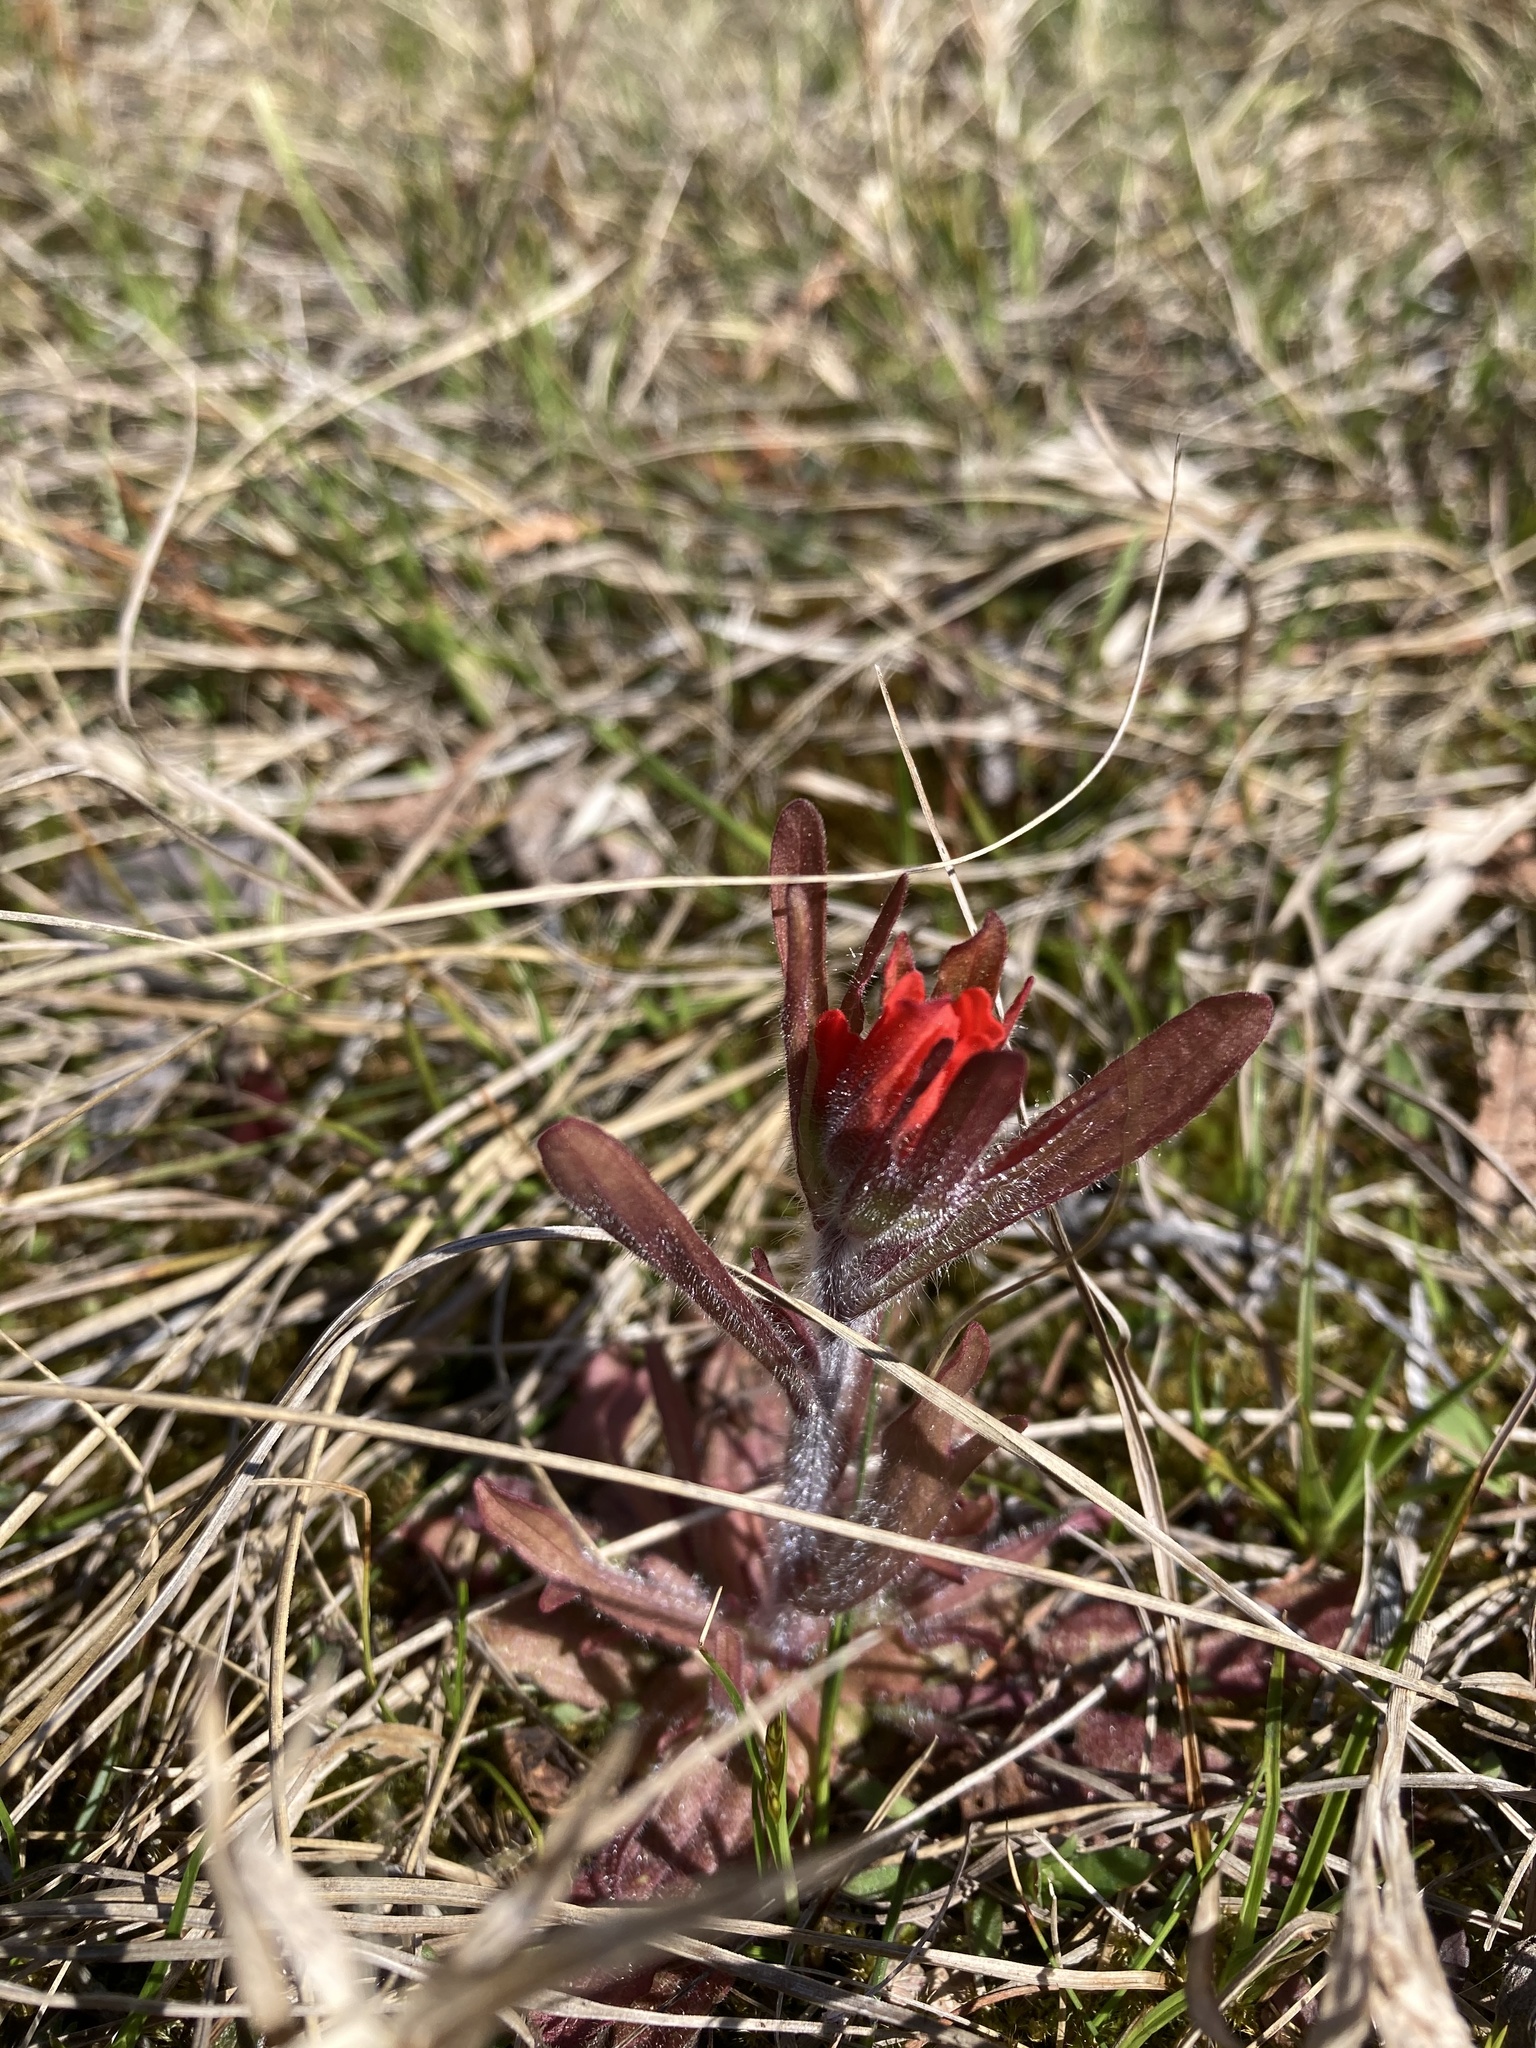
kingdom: Plantae
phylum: Tracheophyta
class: Magnoliopsida
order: Lamiales
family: Orobanchaceae
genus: Castilleja
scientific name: Castilleja coccinea
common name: Scarlet paintbrush
